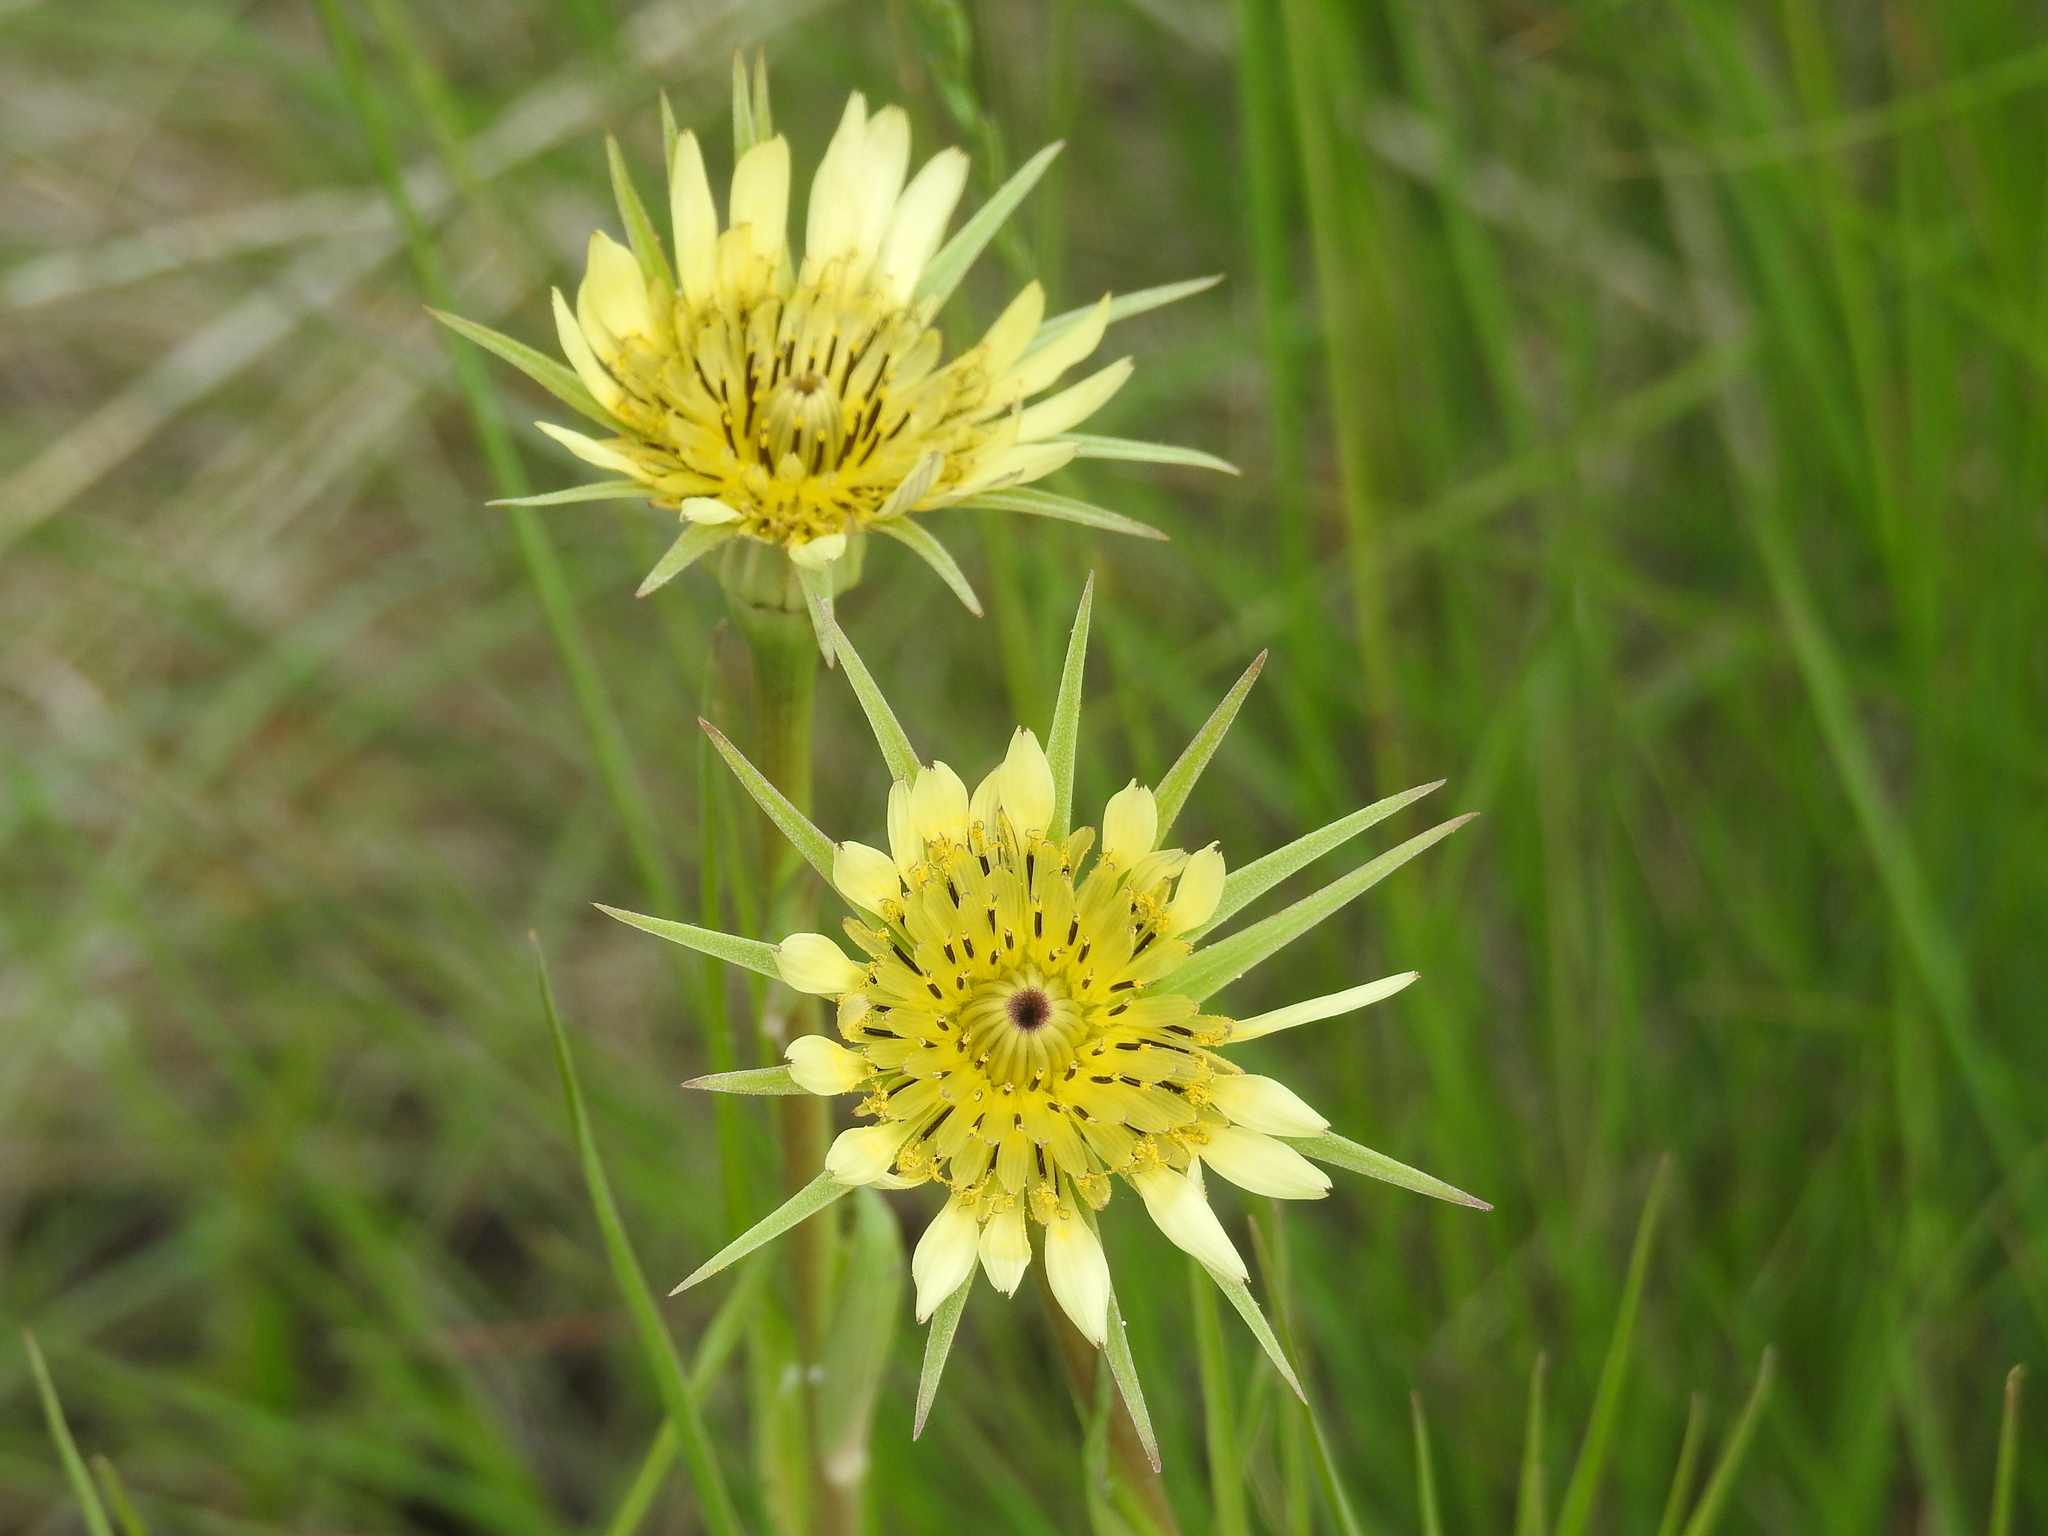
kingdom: Plantae
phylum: Tracheophyta
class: Magnoliopsida
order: Asterales
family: Asteraceae
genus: Tragopogon
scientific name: Tragopogon dubius
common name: Yellow salsify
